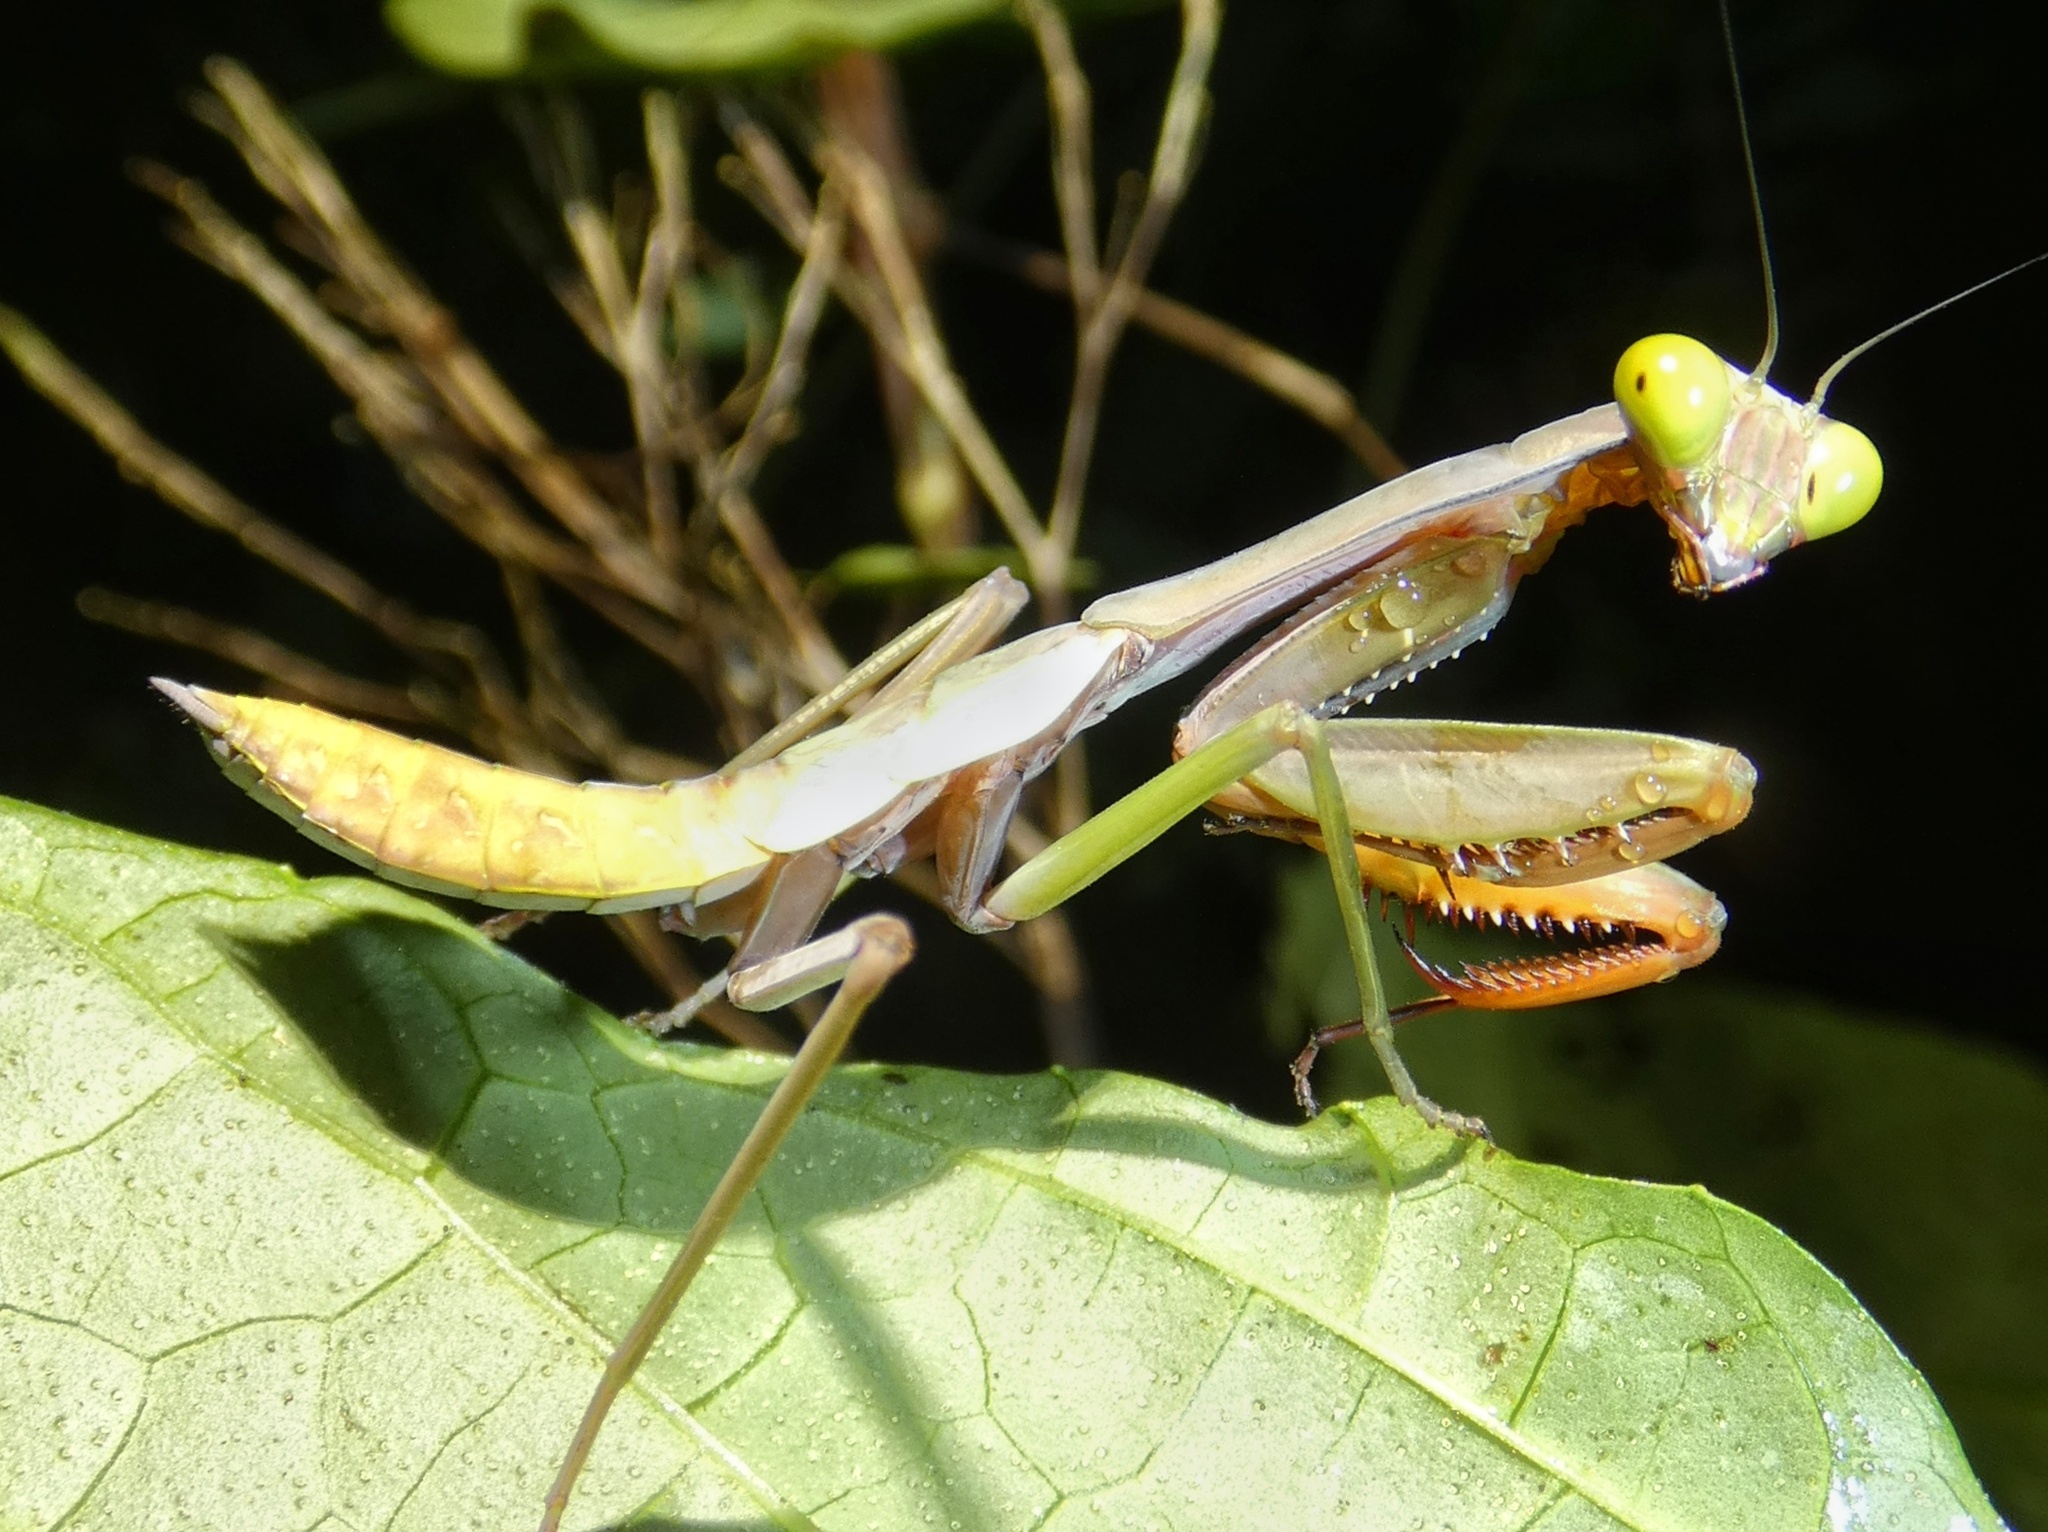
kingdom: Animalia
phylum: Arthropoda
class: Insecta
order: Mantodea
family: Mantidae
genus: Hierodula
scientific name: Hierodula majuscula
